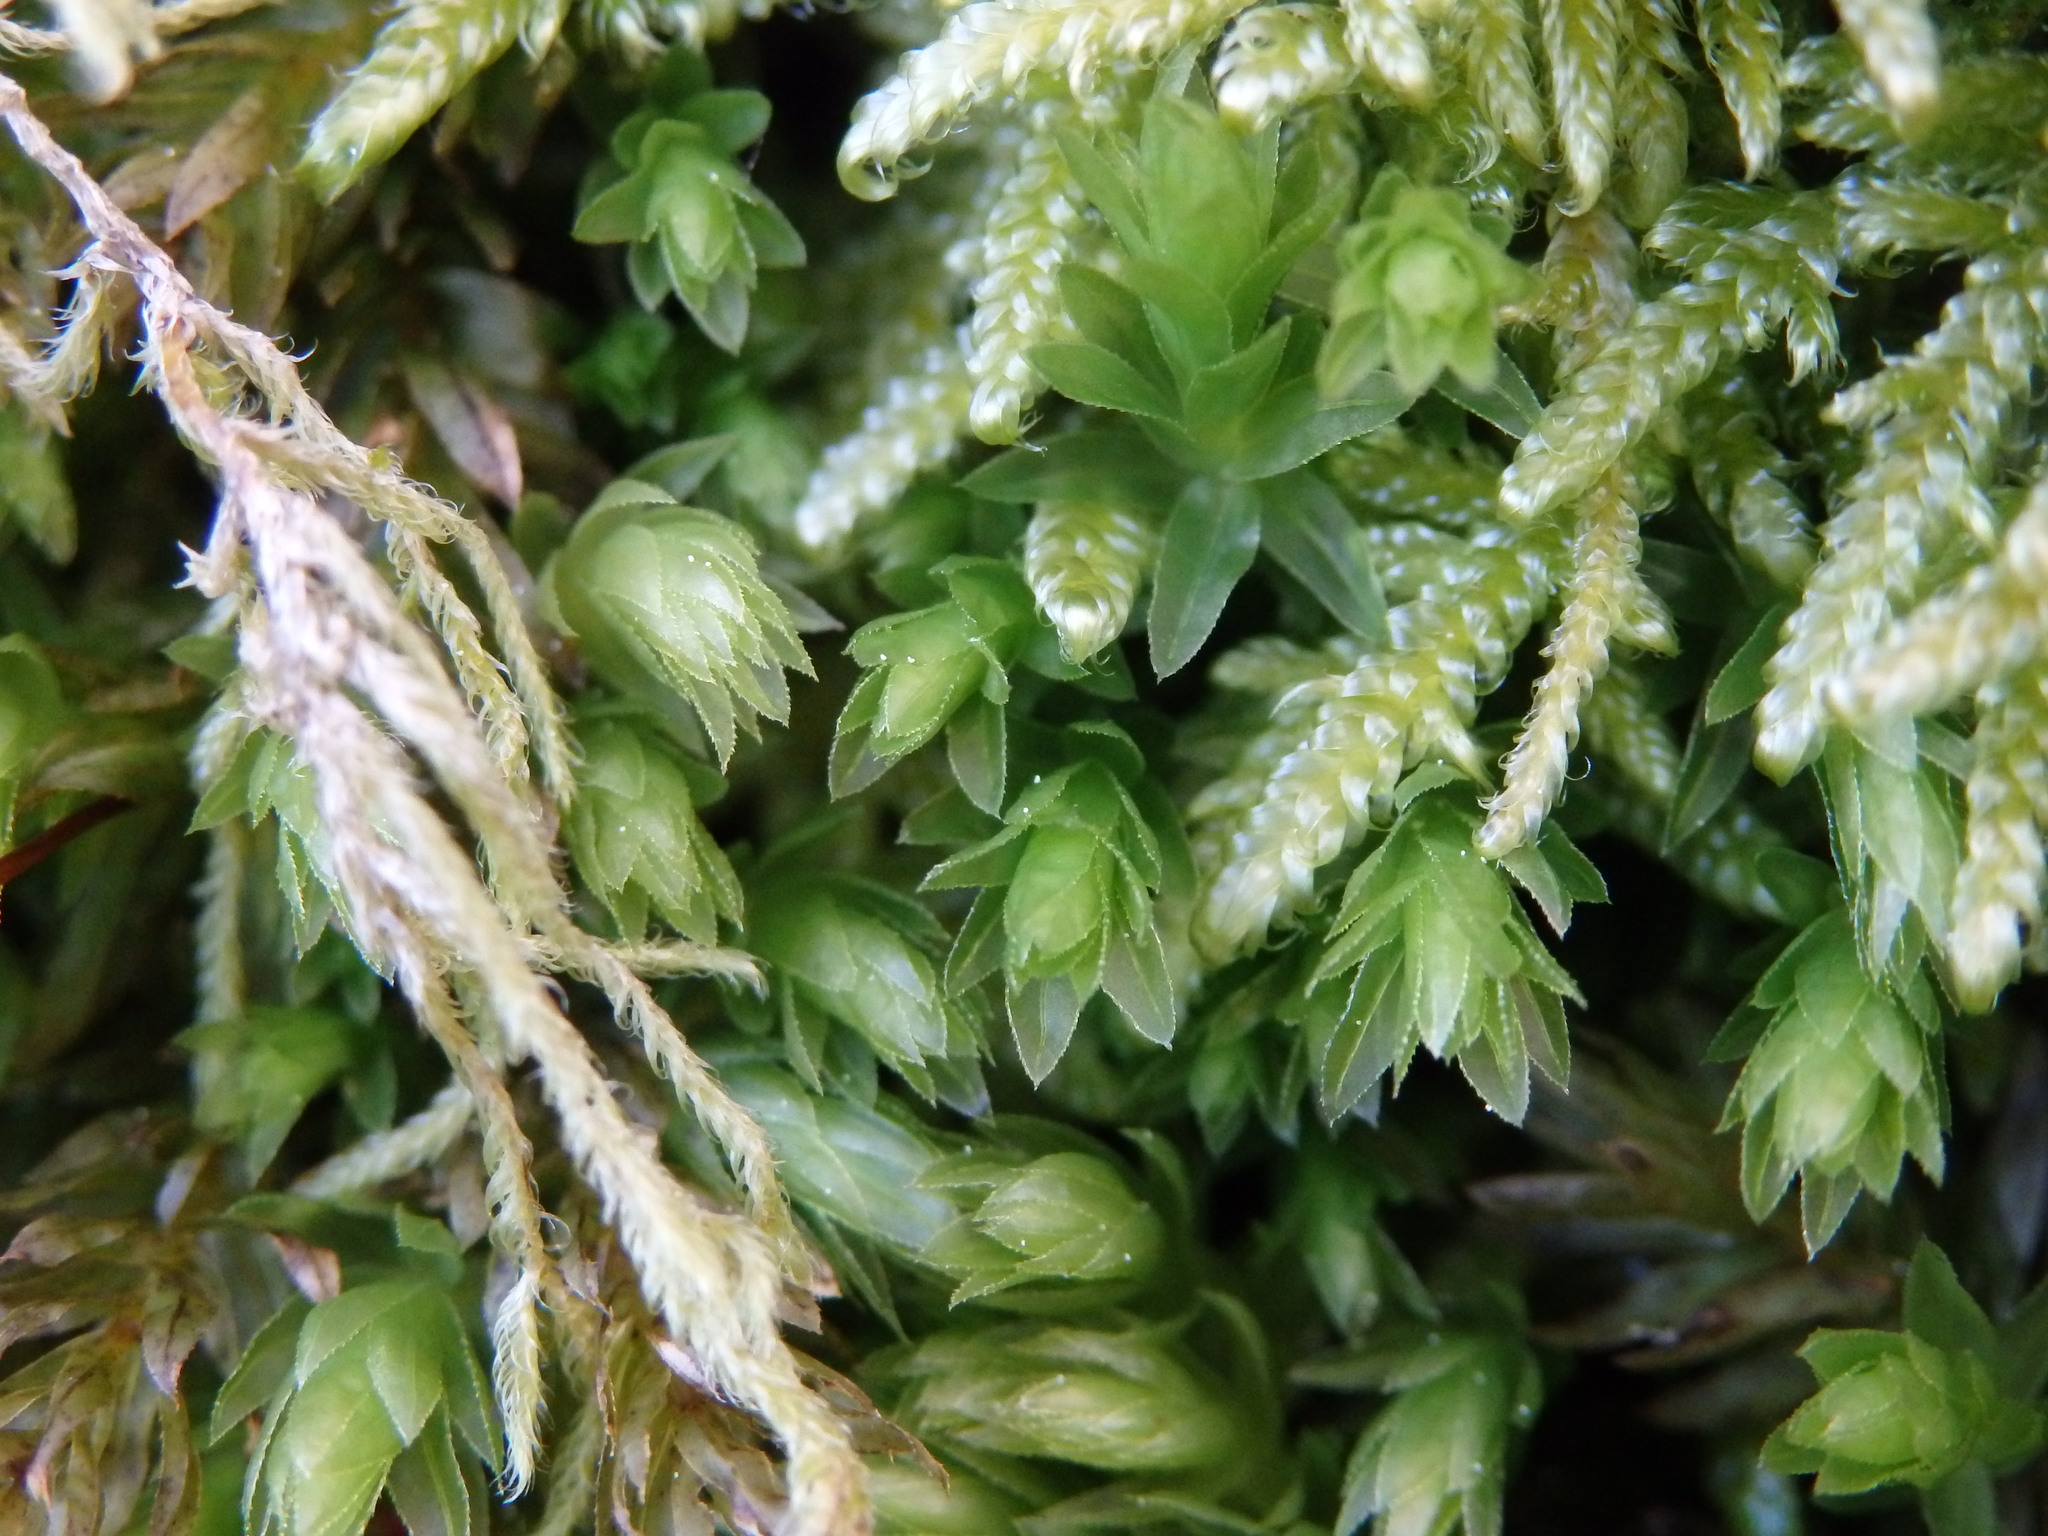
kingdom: Plantae
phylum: Bryophyta
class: Bryopsida
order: Bryales
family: Mniaceae
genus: Mnium
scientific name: Mnium hornum
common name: Swan's-neck leafy moss
